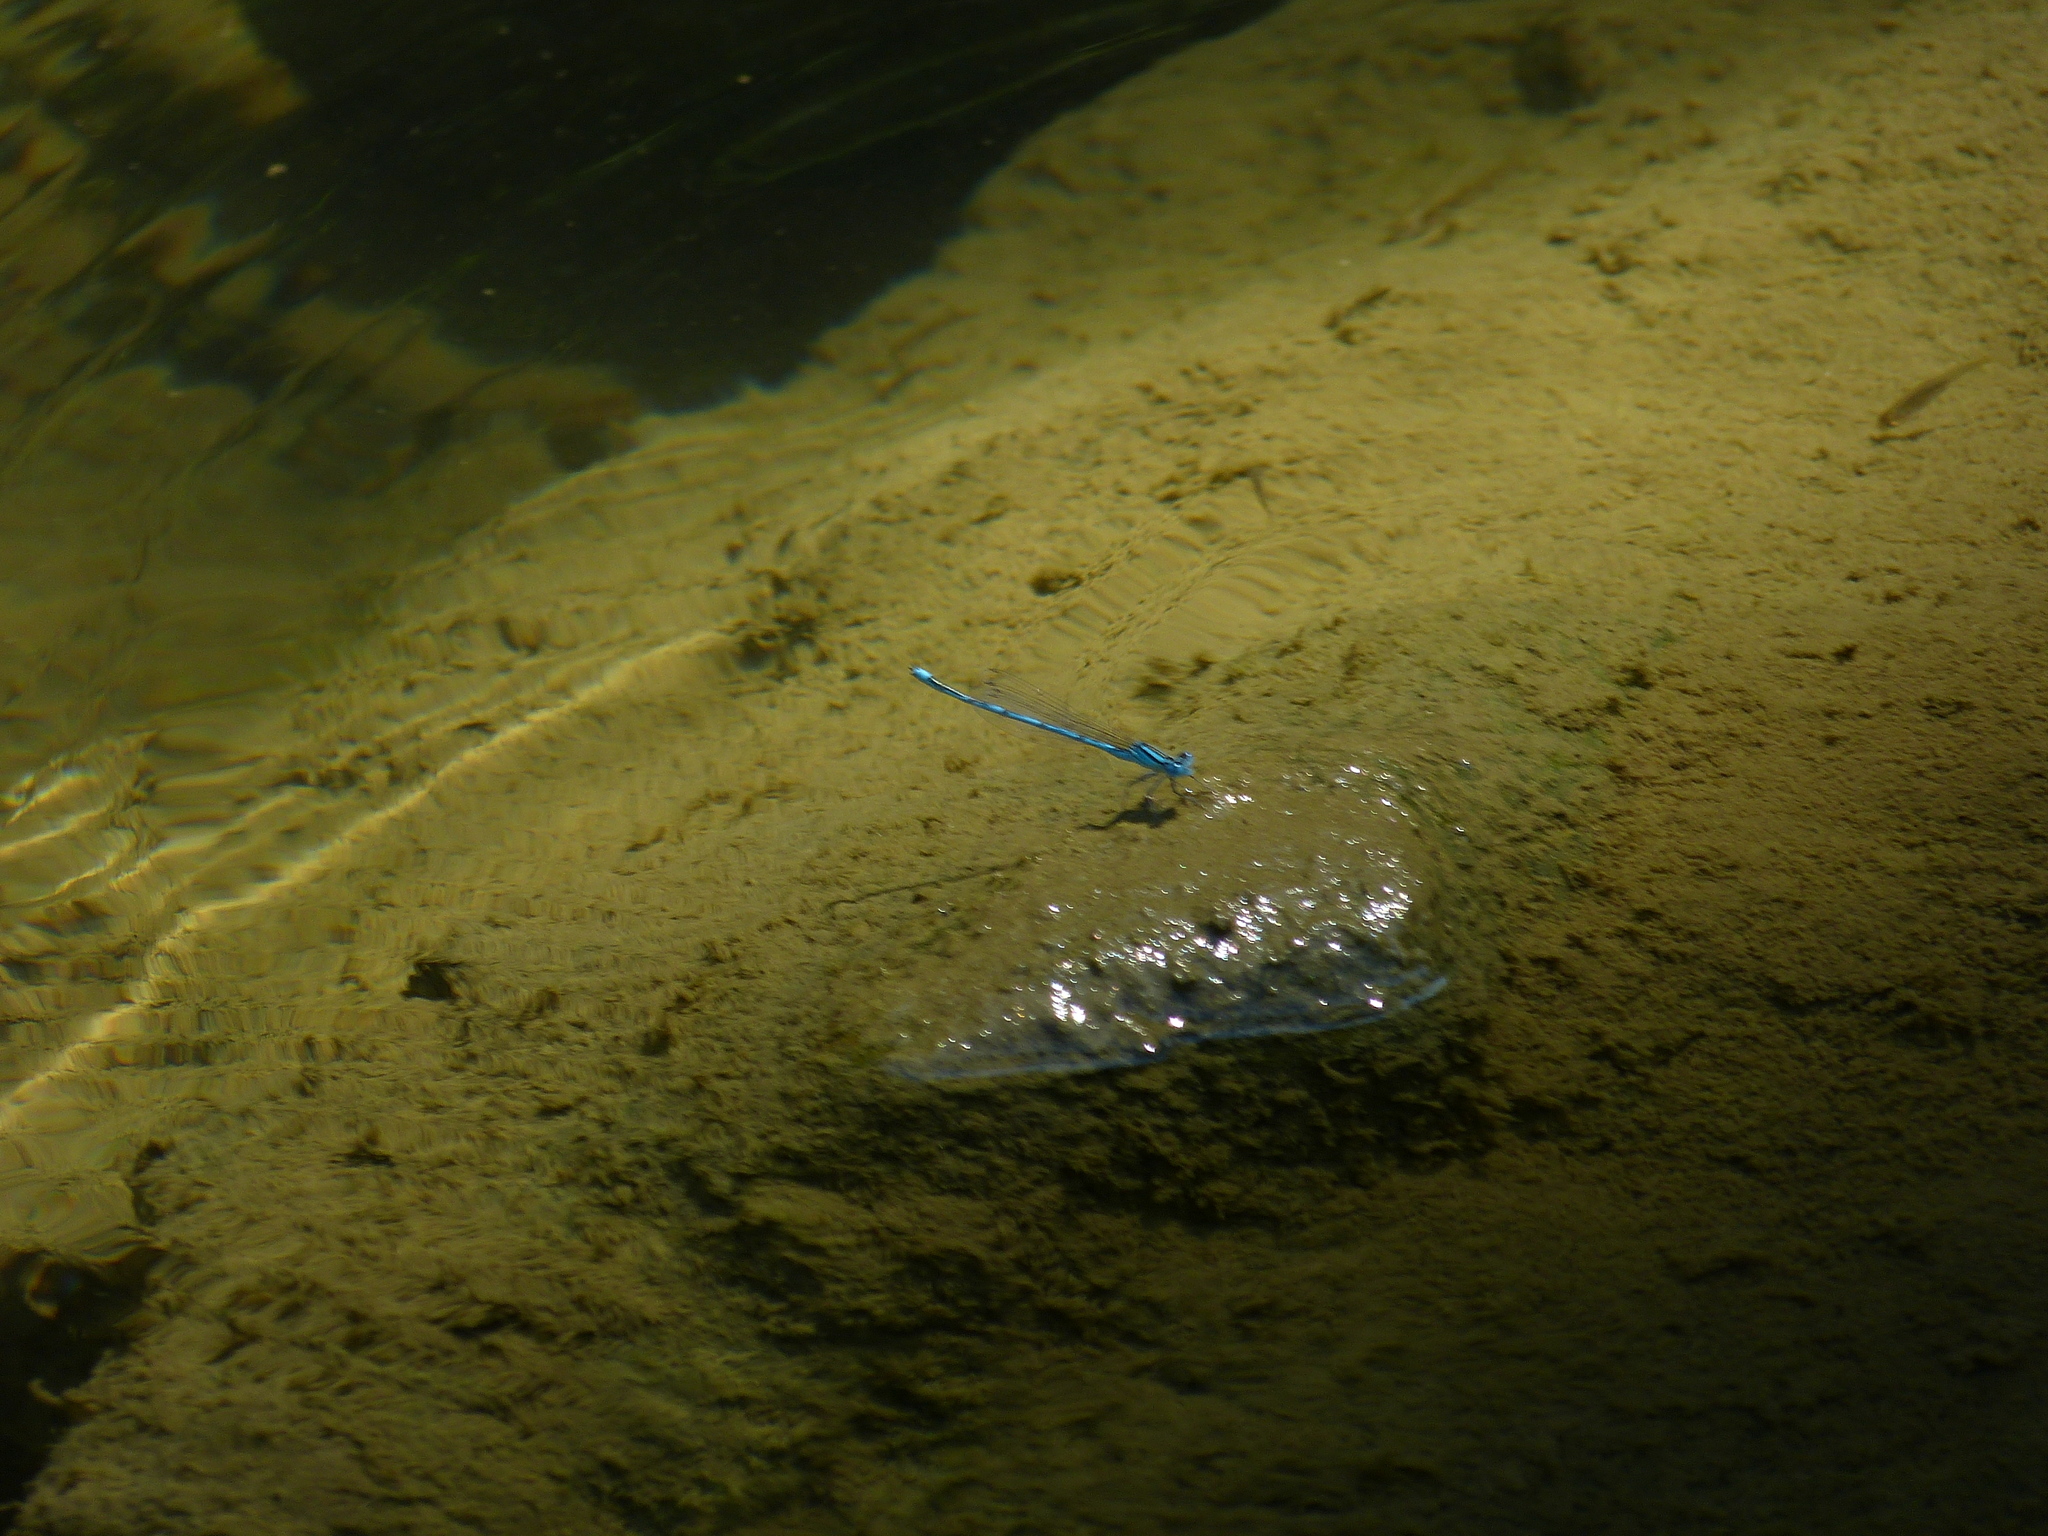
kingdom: Animalia
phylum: Arthropoda
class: Insecta
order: Odonata
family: Coenagrionidae
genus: Erythromma
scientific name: Erythromma lindenii
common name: Blue-eye
